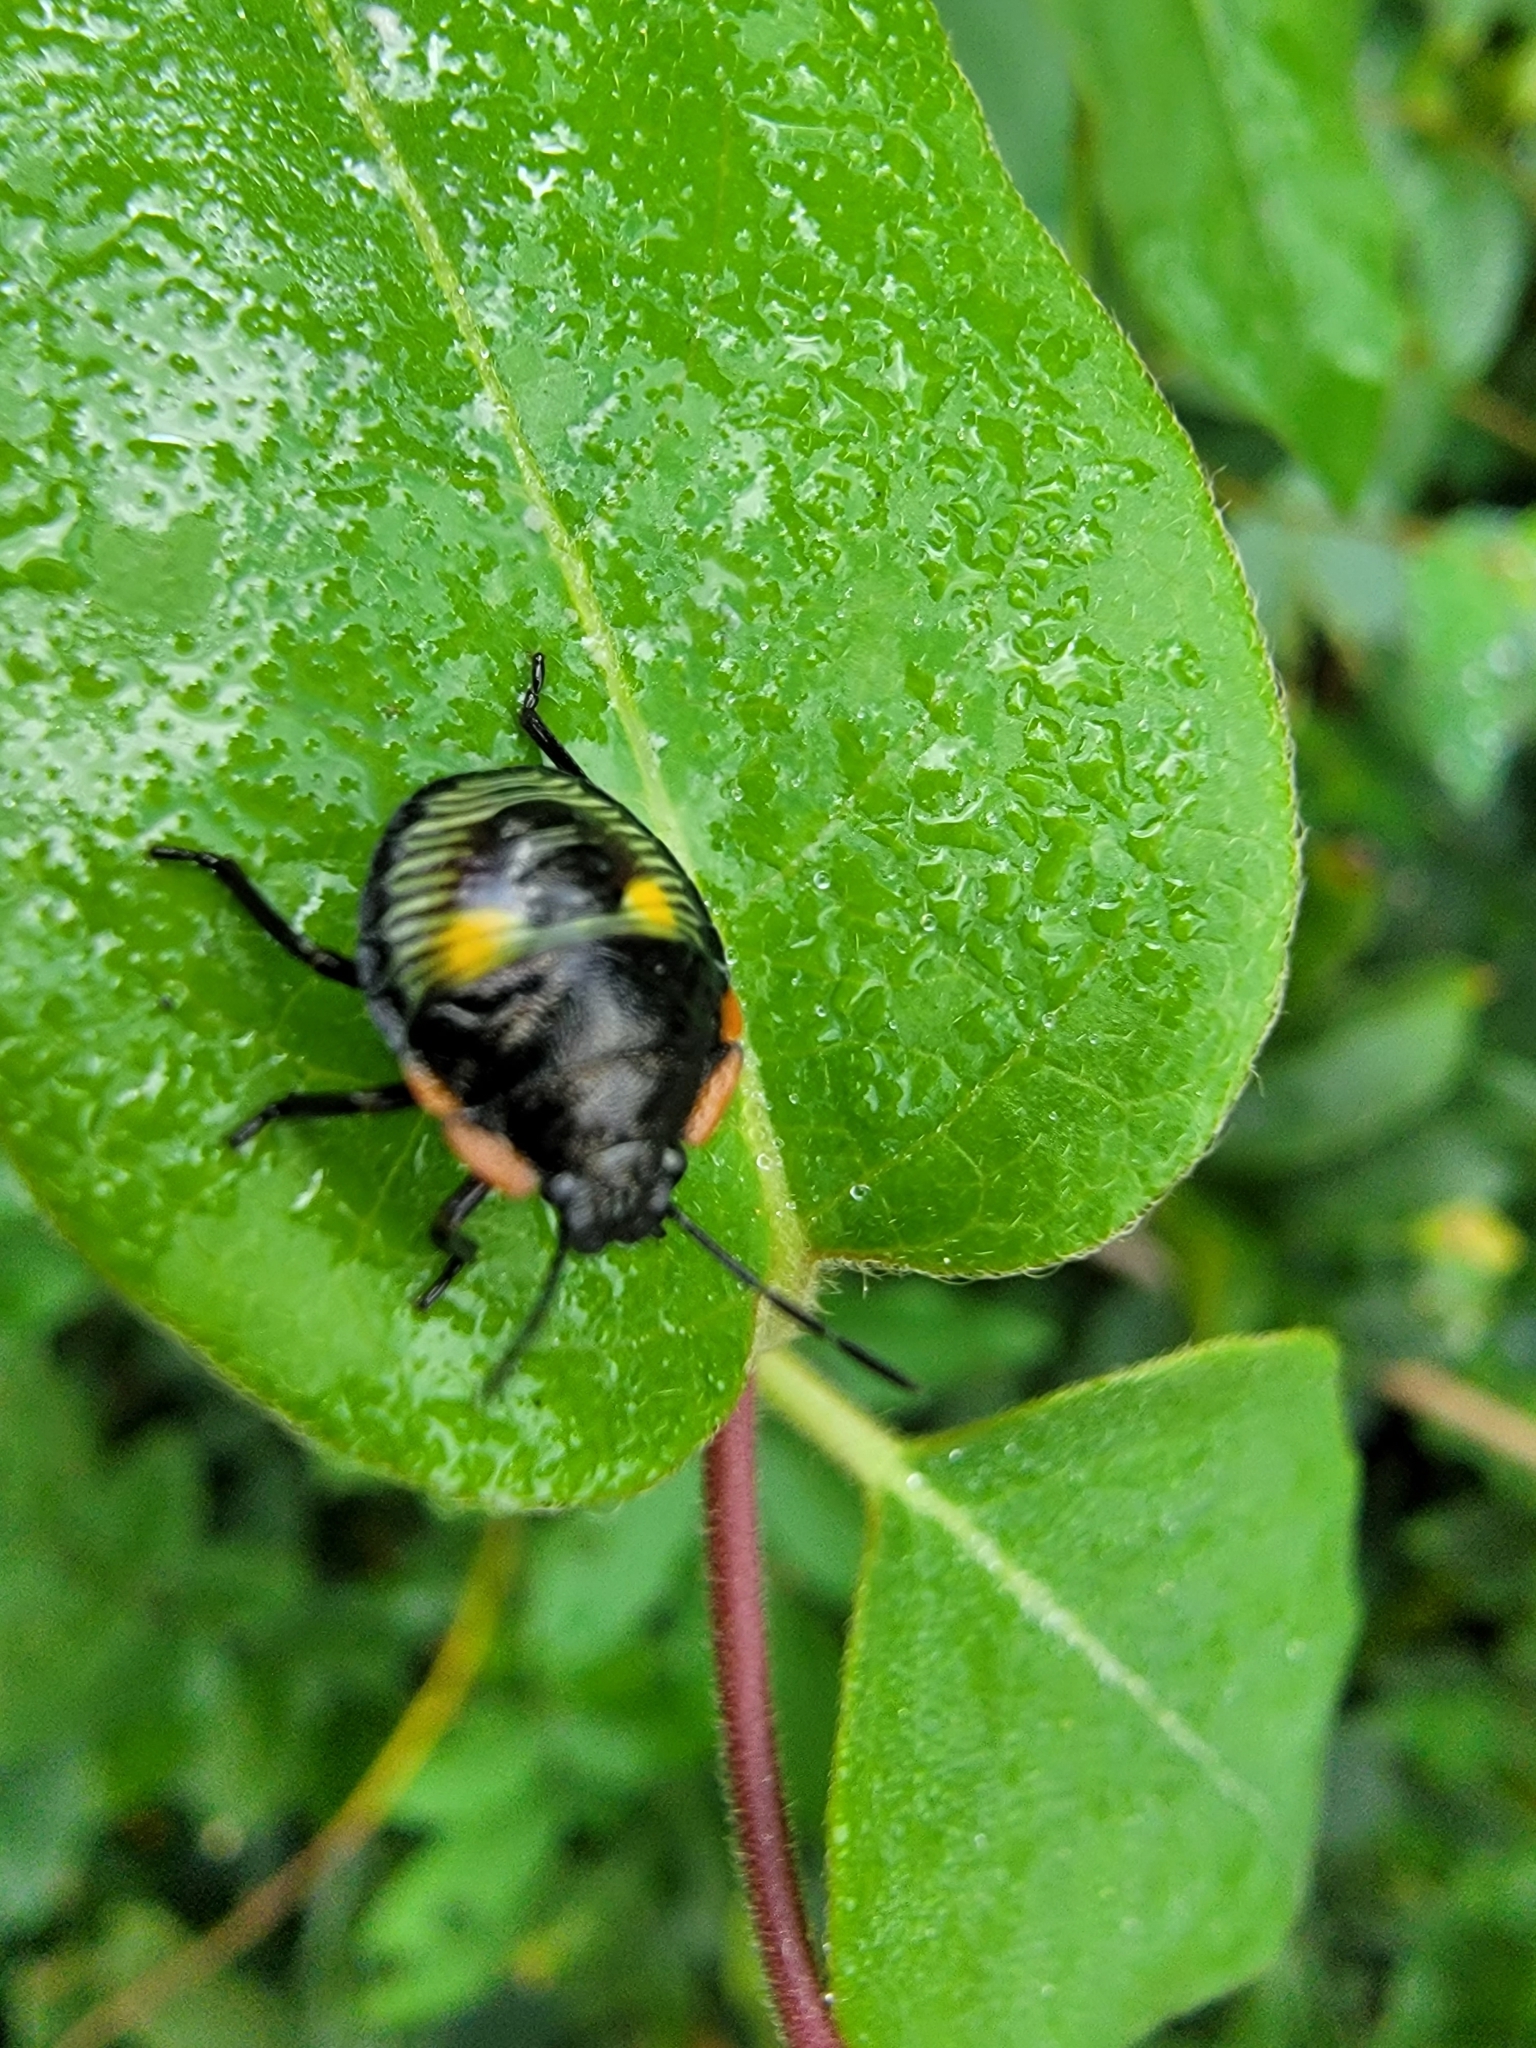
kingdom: Animalia
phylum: Arthropoda
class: Insecta
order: Hemiptera
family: Pentatomidae
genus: Chinavia
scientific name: Chinavia hilaris
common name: Green stink bug
